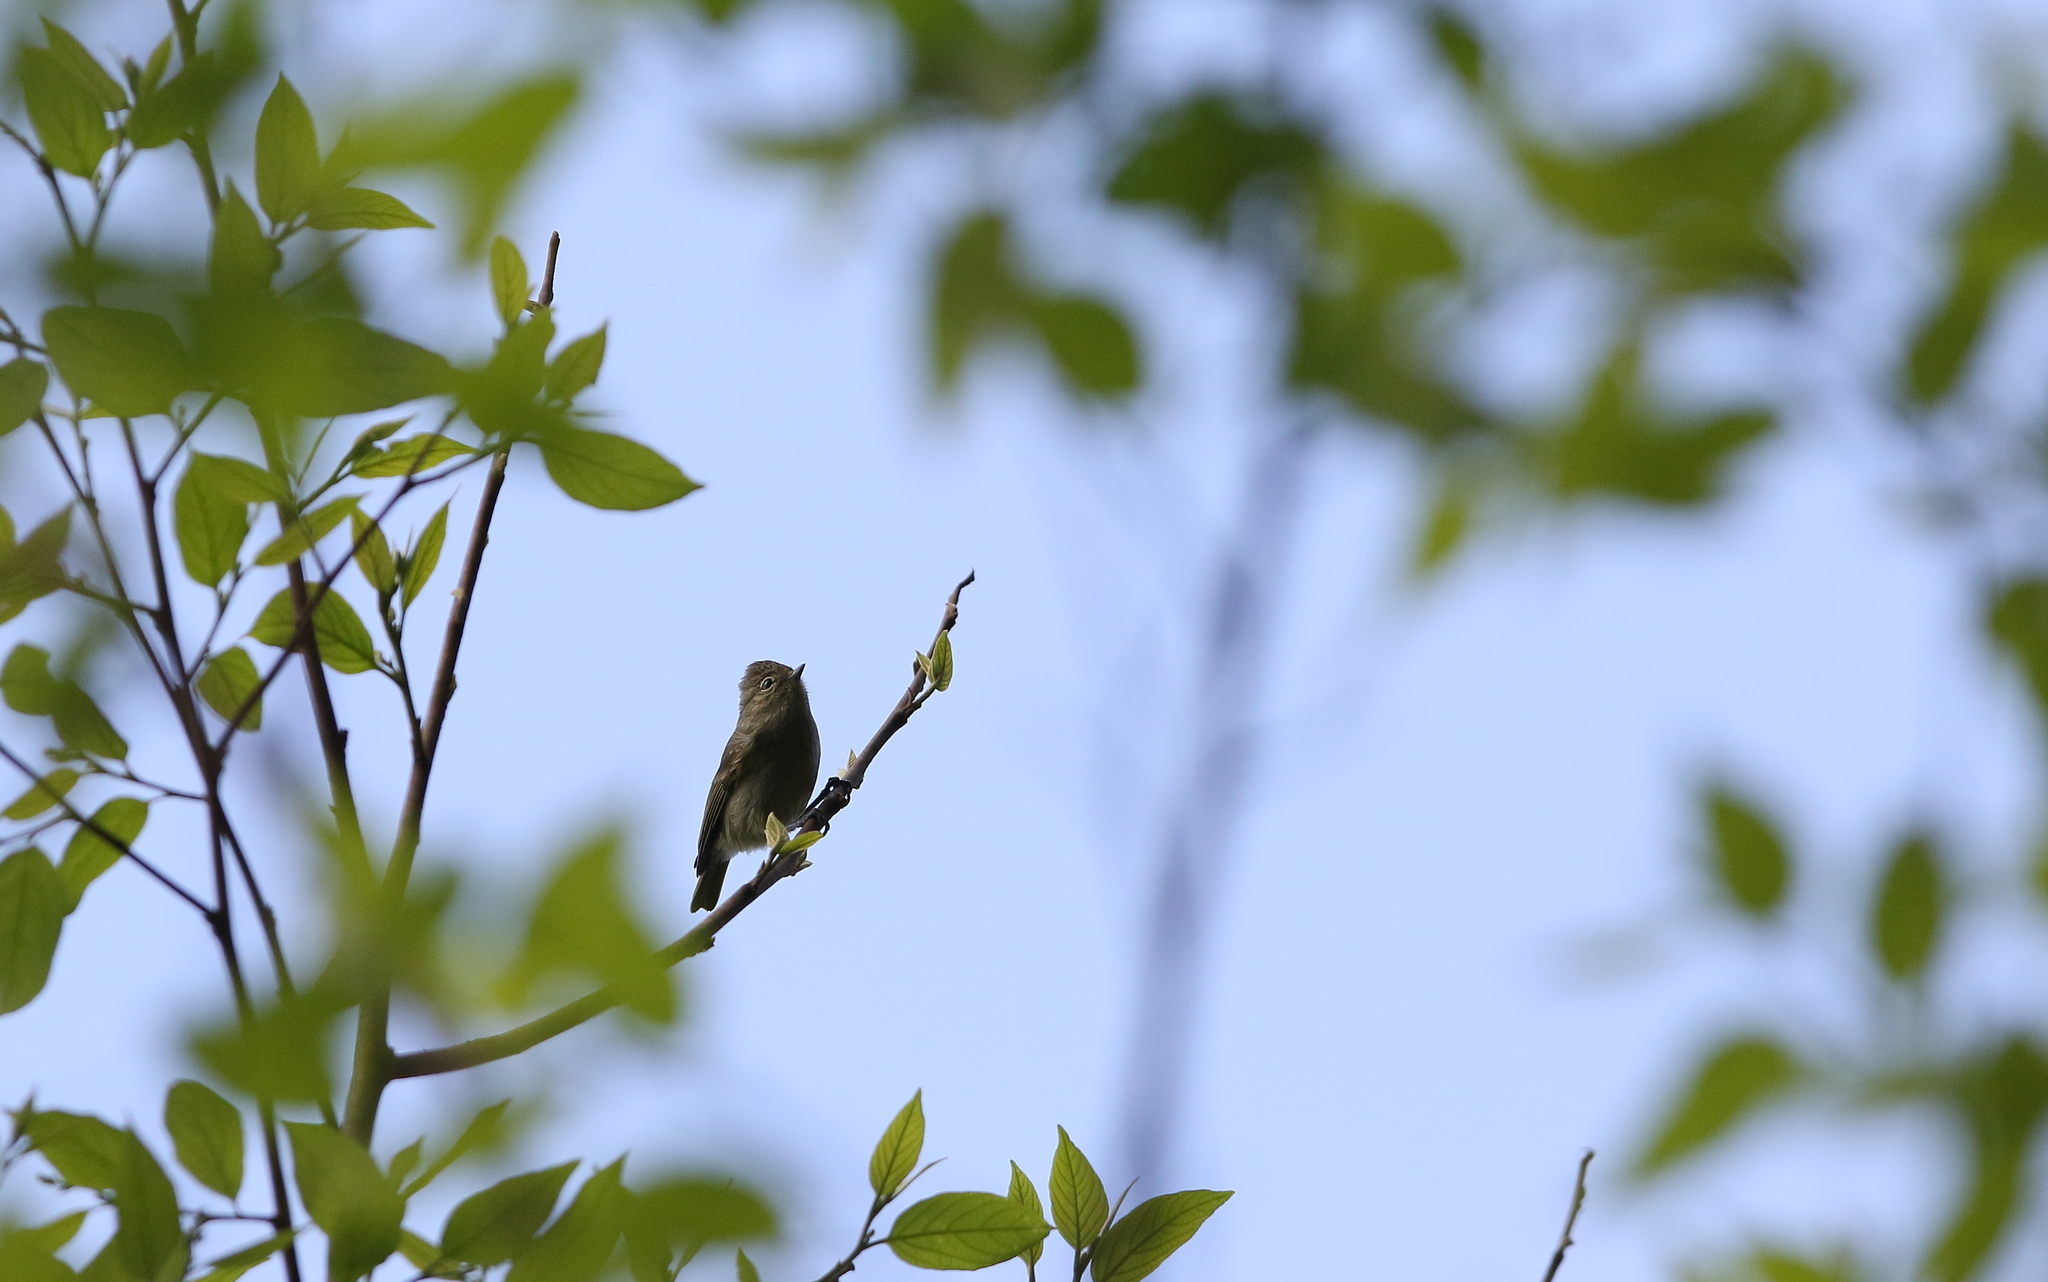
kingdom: Animalia
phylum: Chordata
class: Aves
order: Passeriformes
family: Paridae
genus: Sylviparus
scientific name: Sylviparus modestus
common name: Yellow-browed tit
